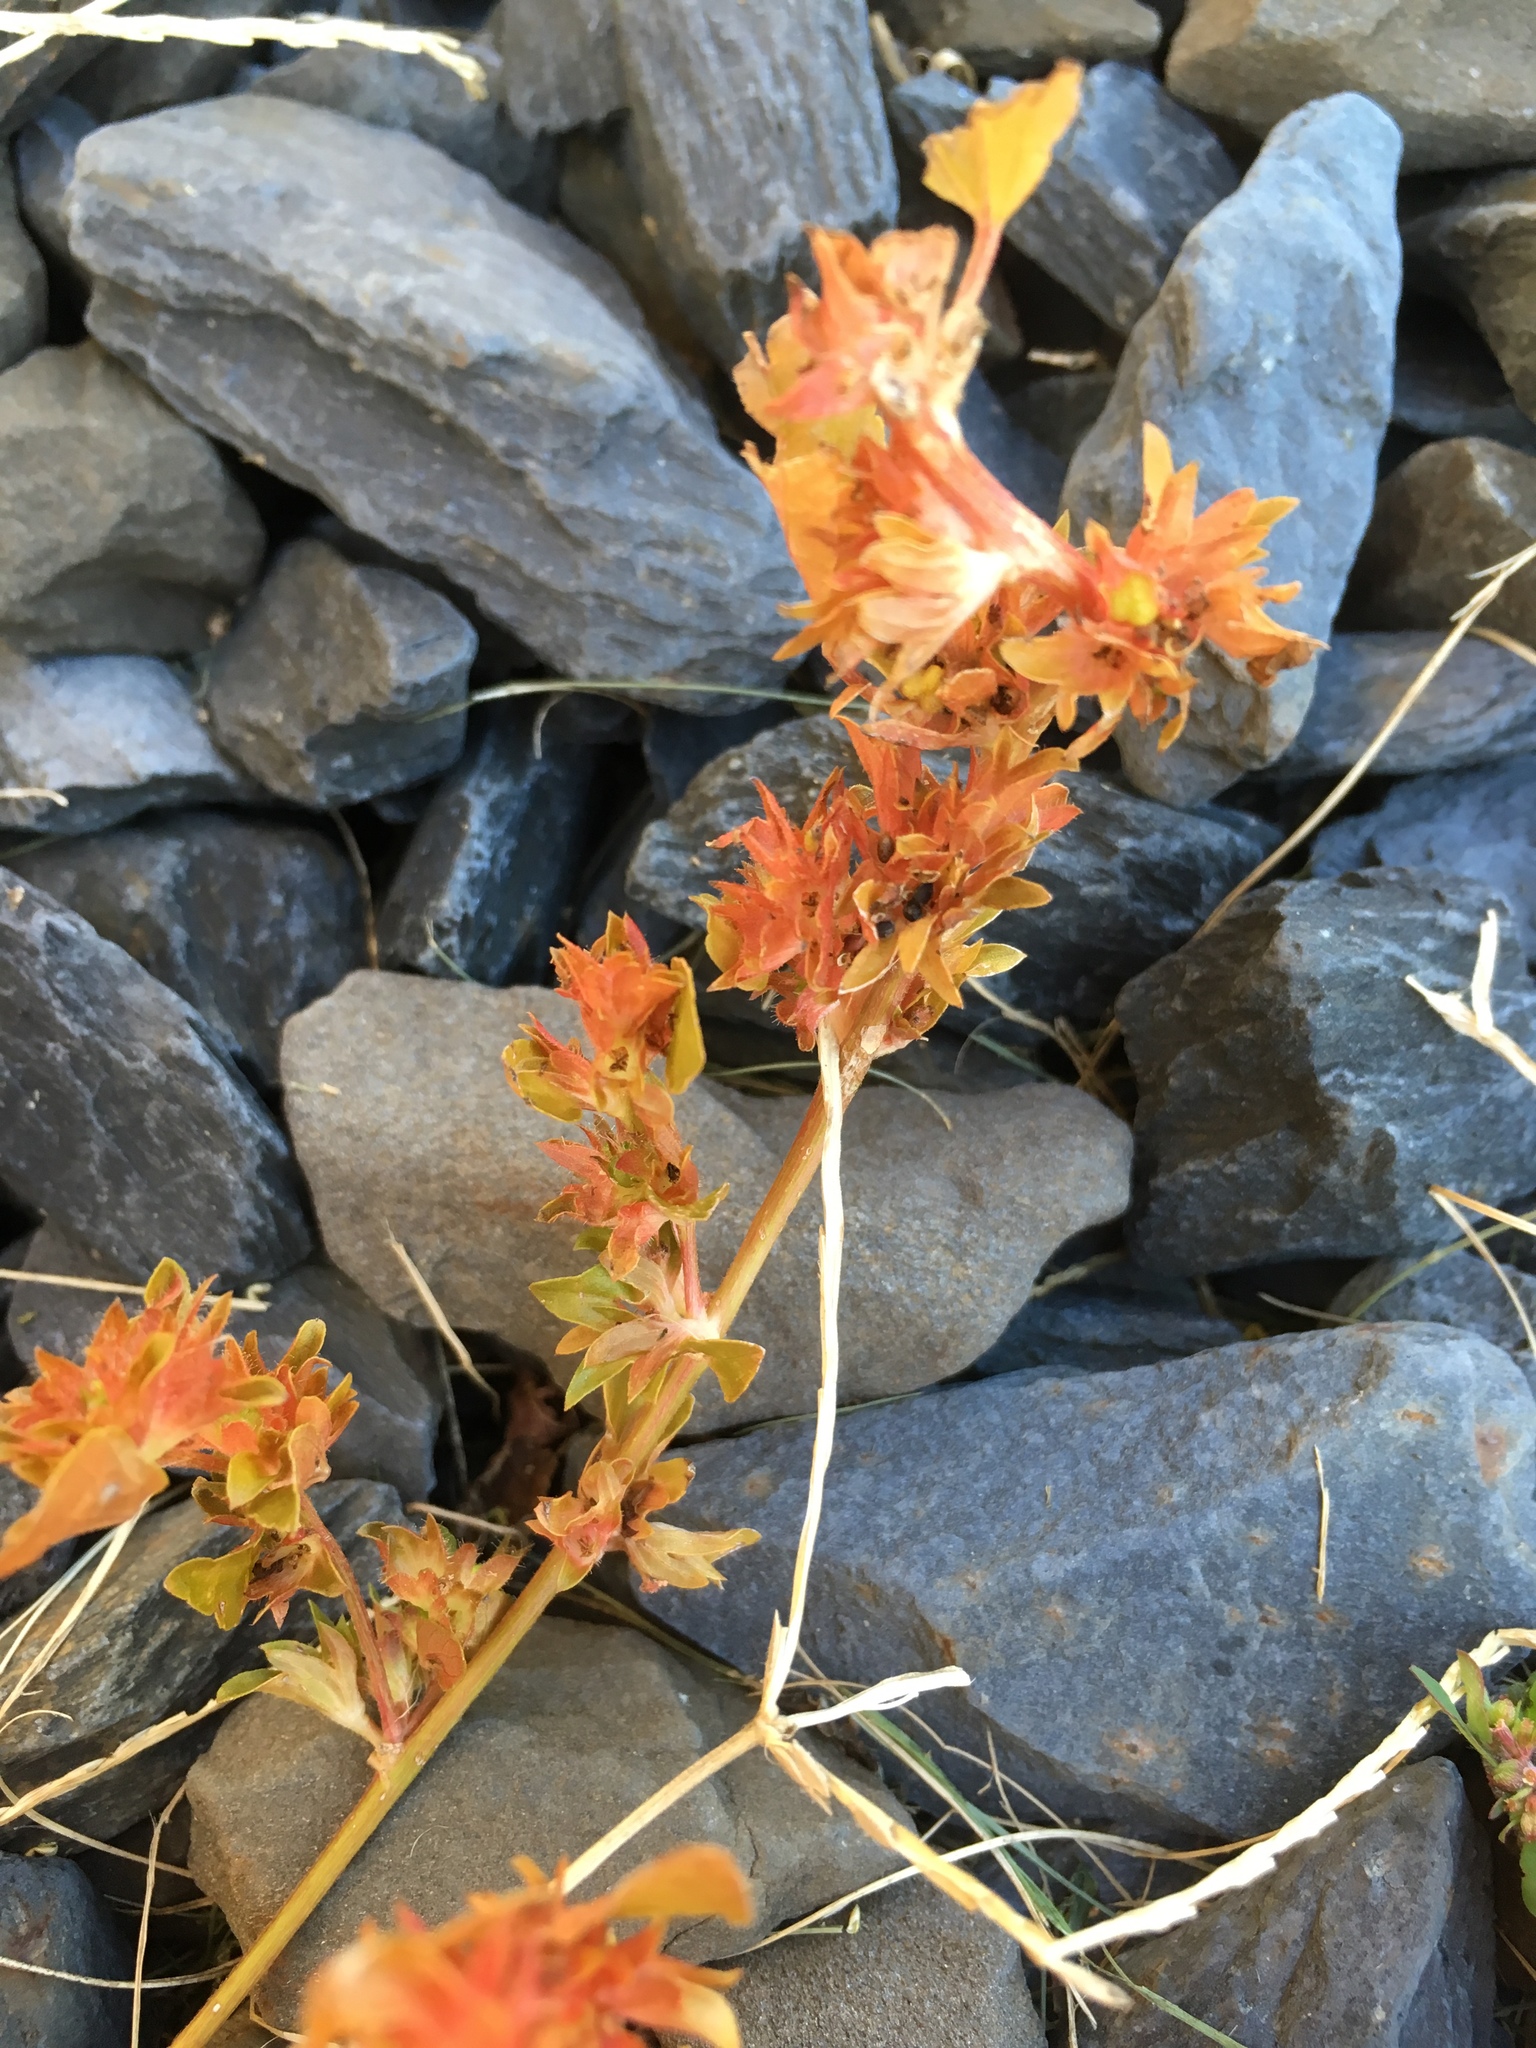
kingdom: Plantae
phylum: Tracheophyta
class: Magnoliopsida
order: Malpighiales
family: Euphorbiaceae
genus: Acalypha
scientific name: Acalypha rhomboidea
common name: Rhombic copperleaf
